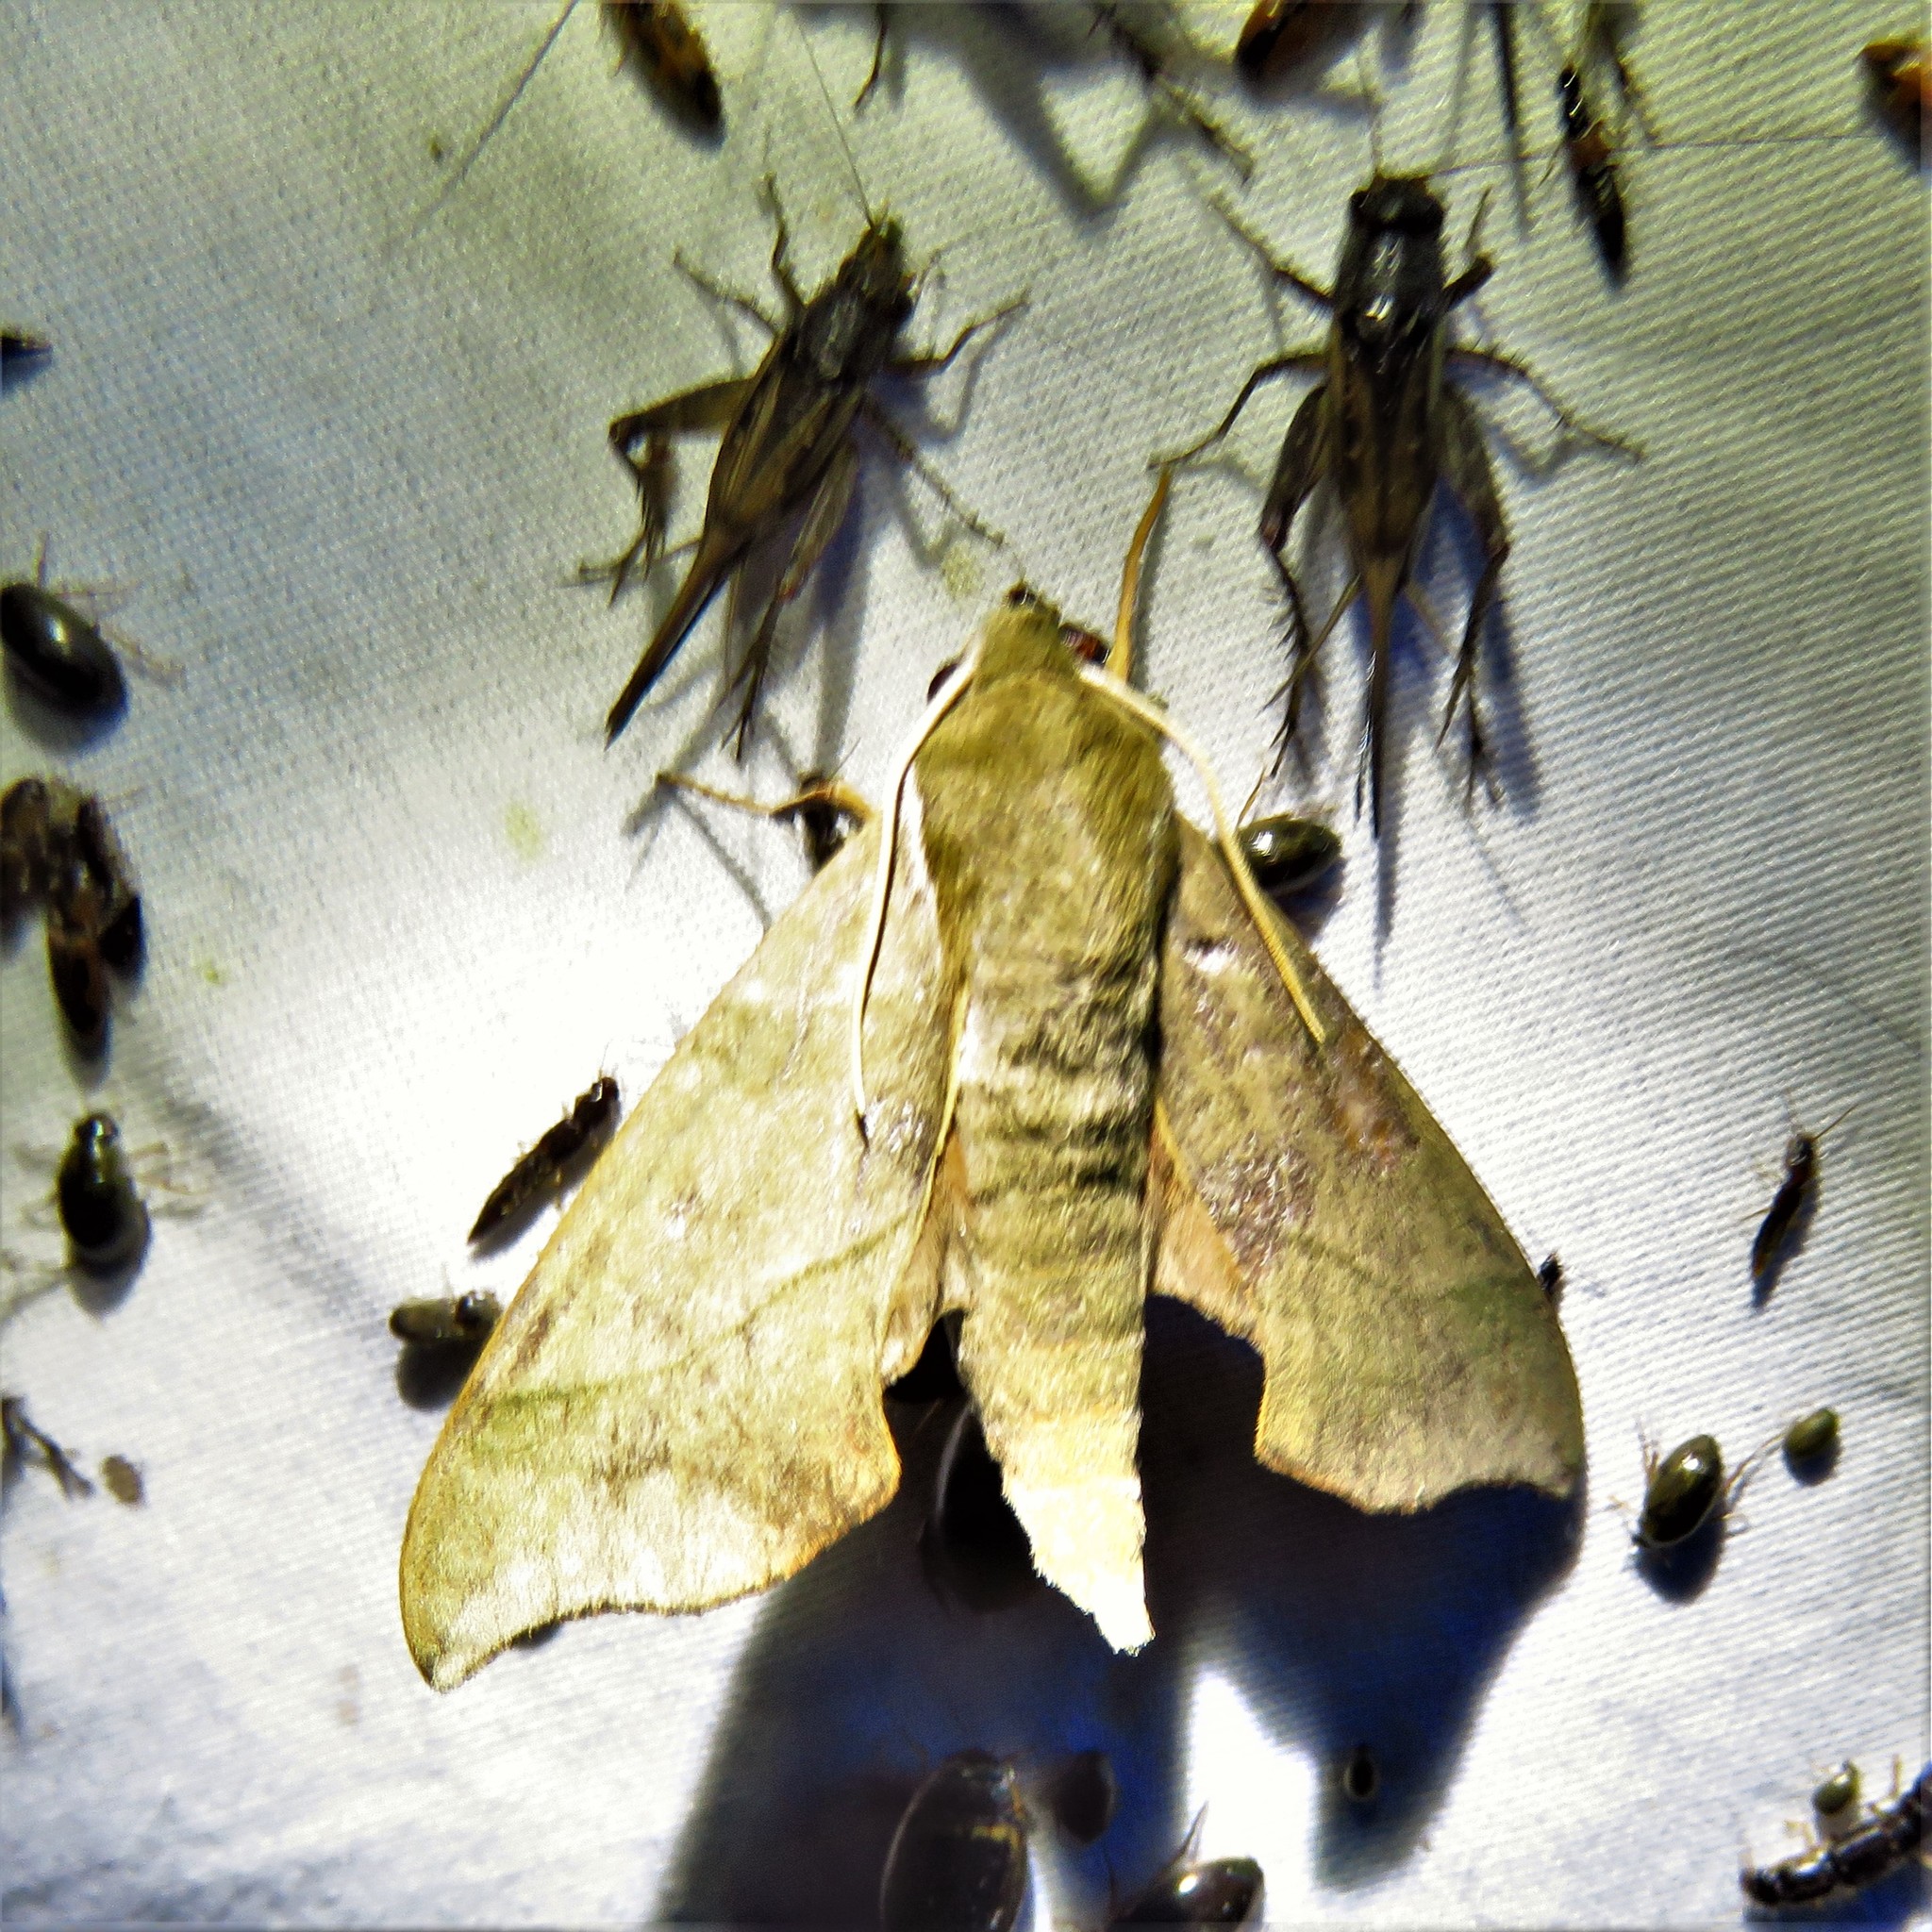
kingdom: Animalia
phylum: Arthropoda
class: Insecta
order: Lepidoptera
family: Sphingidae
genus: Darapsa
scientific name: Darapsa myron
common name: Hog sphinx
